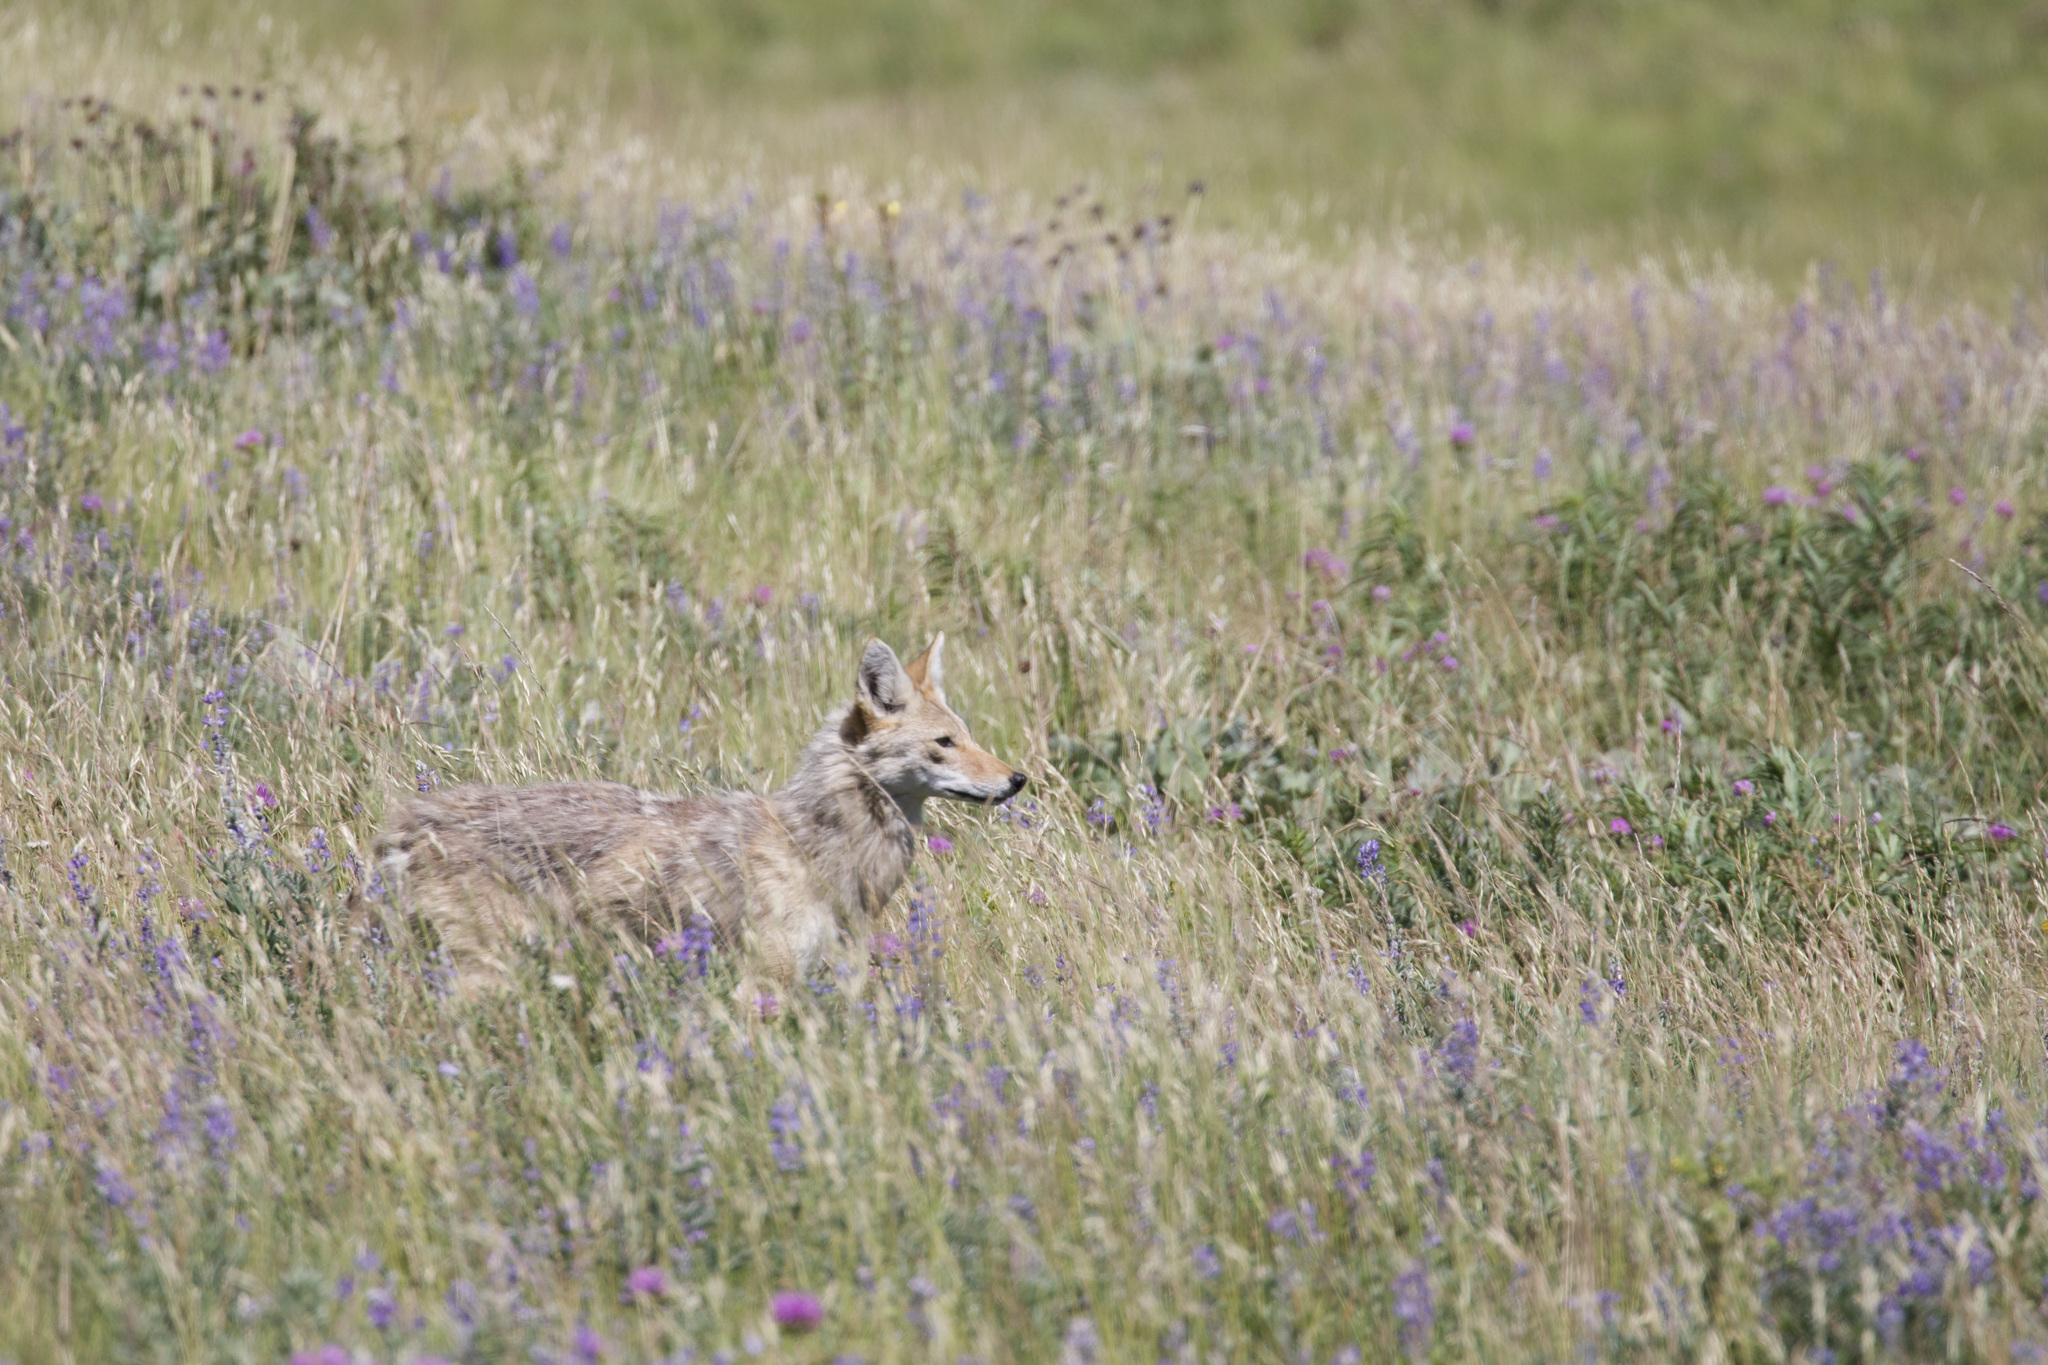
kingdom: Animalia
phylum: Chordata
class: Mammalia
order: Carnivora
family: Canidae
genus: Canis
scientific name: Canis latrans
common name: Coyote
